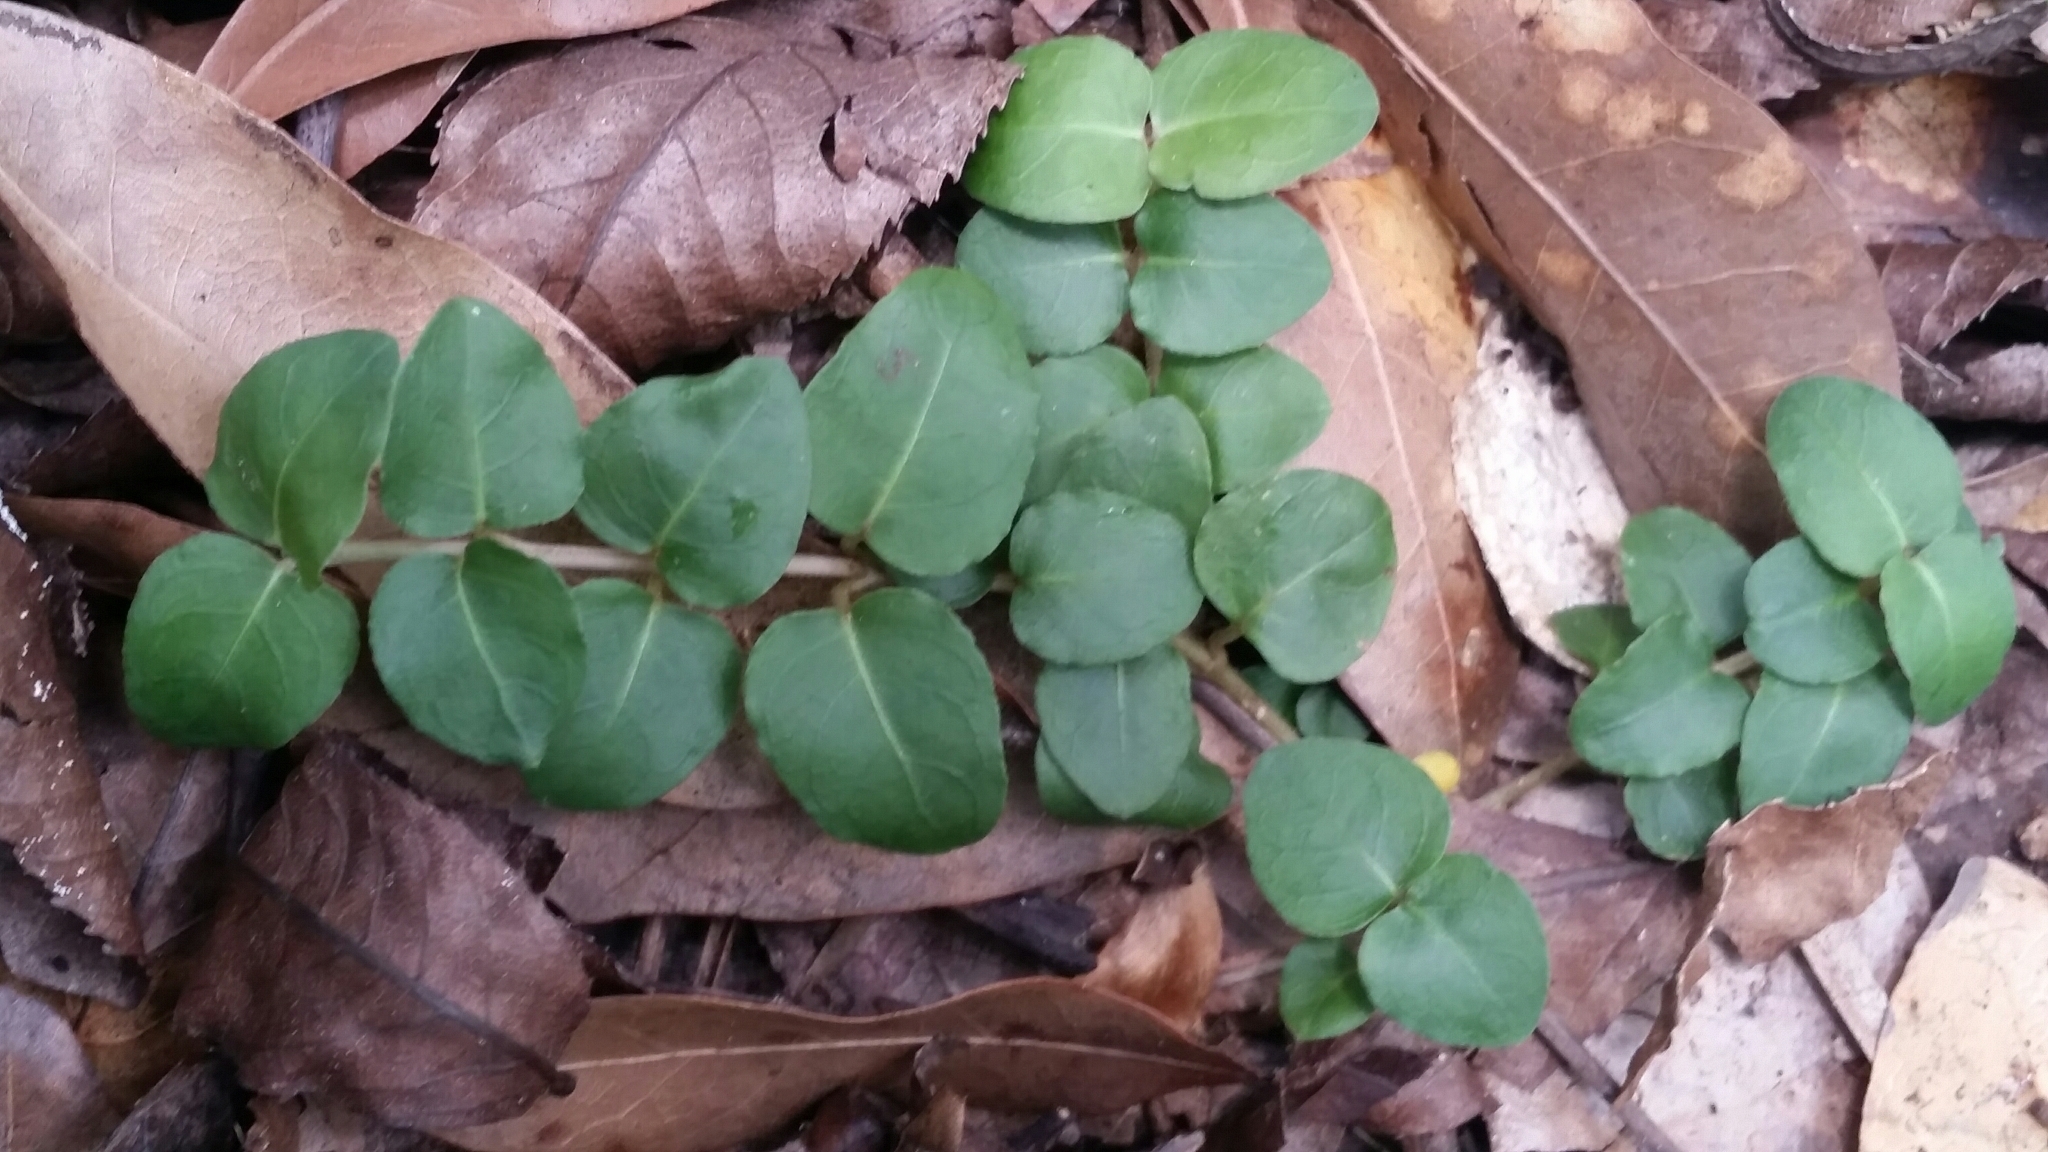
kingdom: Plantae
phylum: Tracheophyta
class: Magnoliopsida
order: Gentianales
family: Rubiaceae
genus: Mitchella
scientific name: Mitchella repens
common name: Partridge-berry
